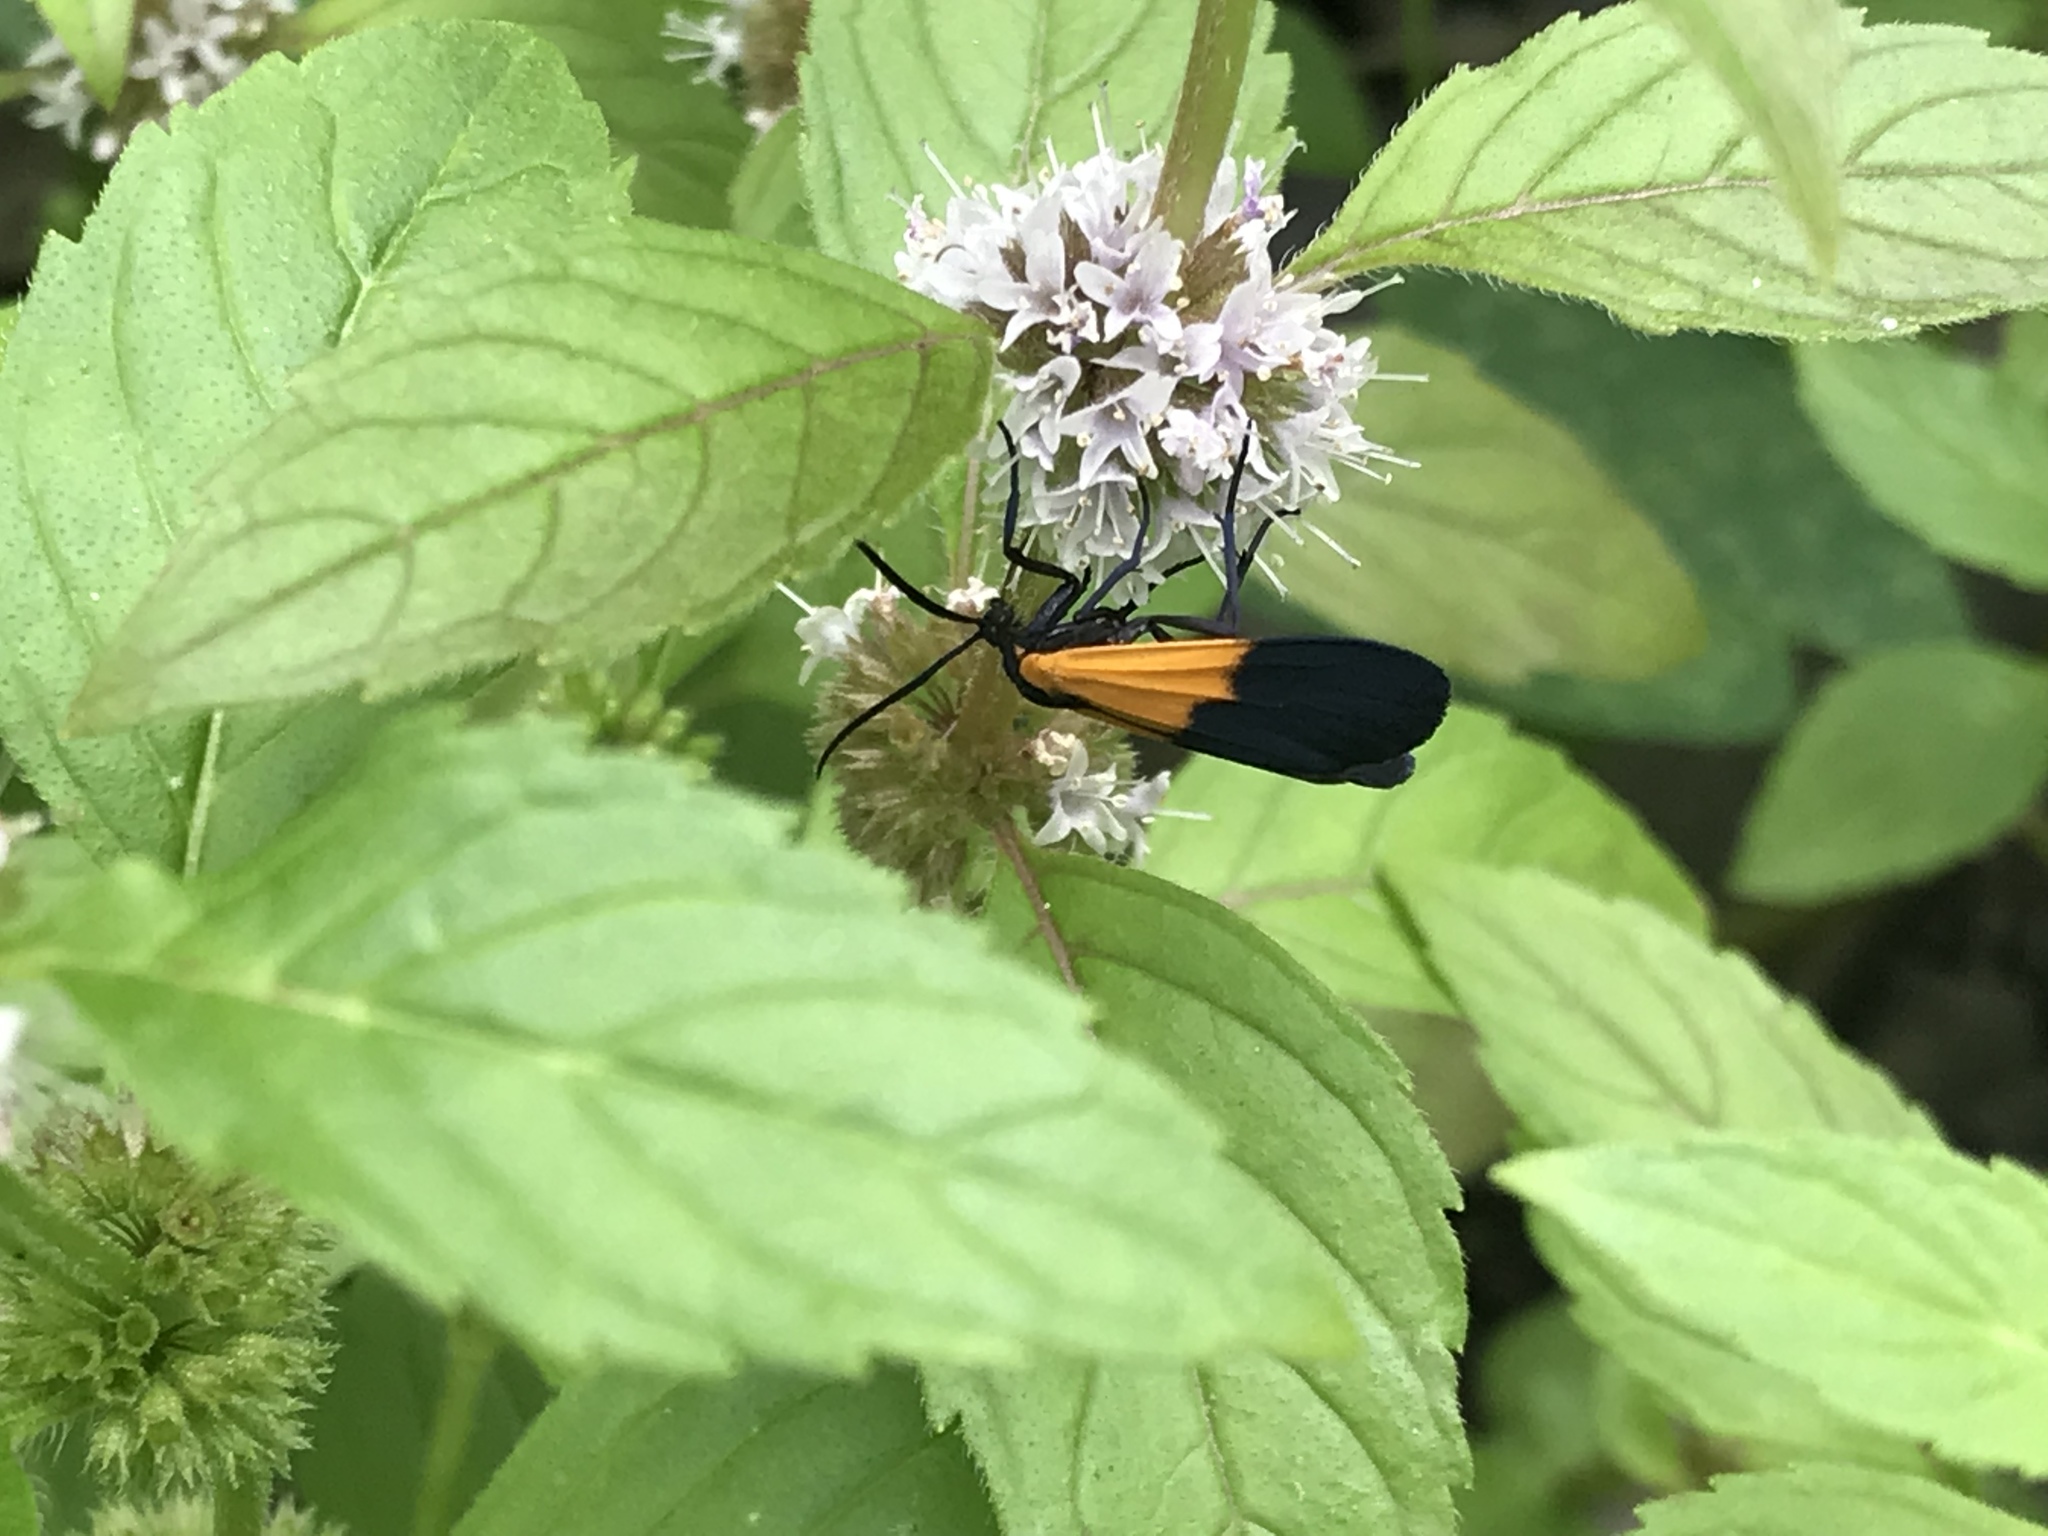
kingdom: Animalia
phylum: Arthropoda
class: Insecta
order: Lepidoptera
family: Erebidae
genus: Lycomorpha
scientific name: Lycomorpha pholus
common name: Black-and-yellow lichen moth
